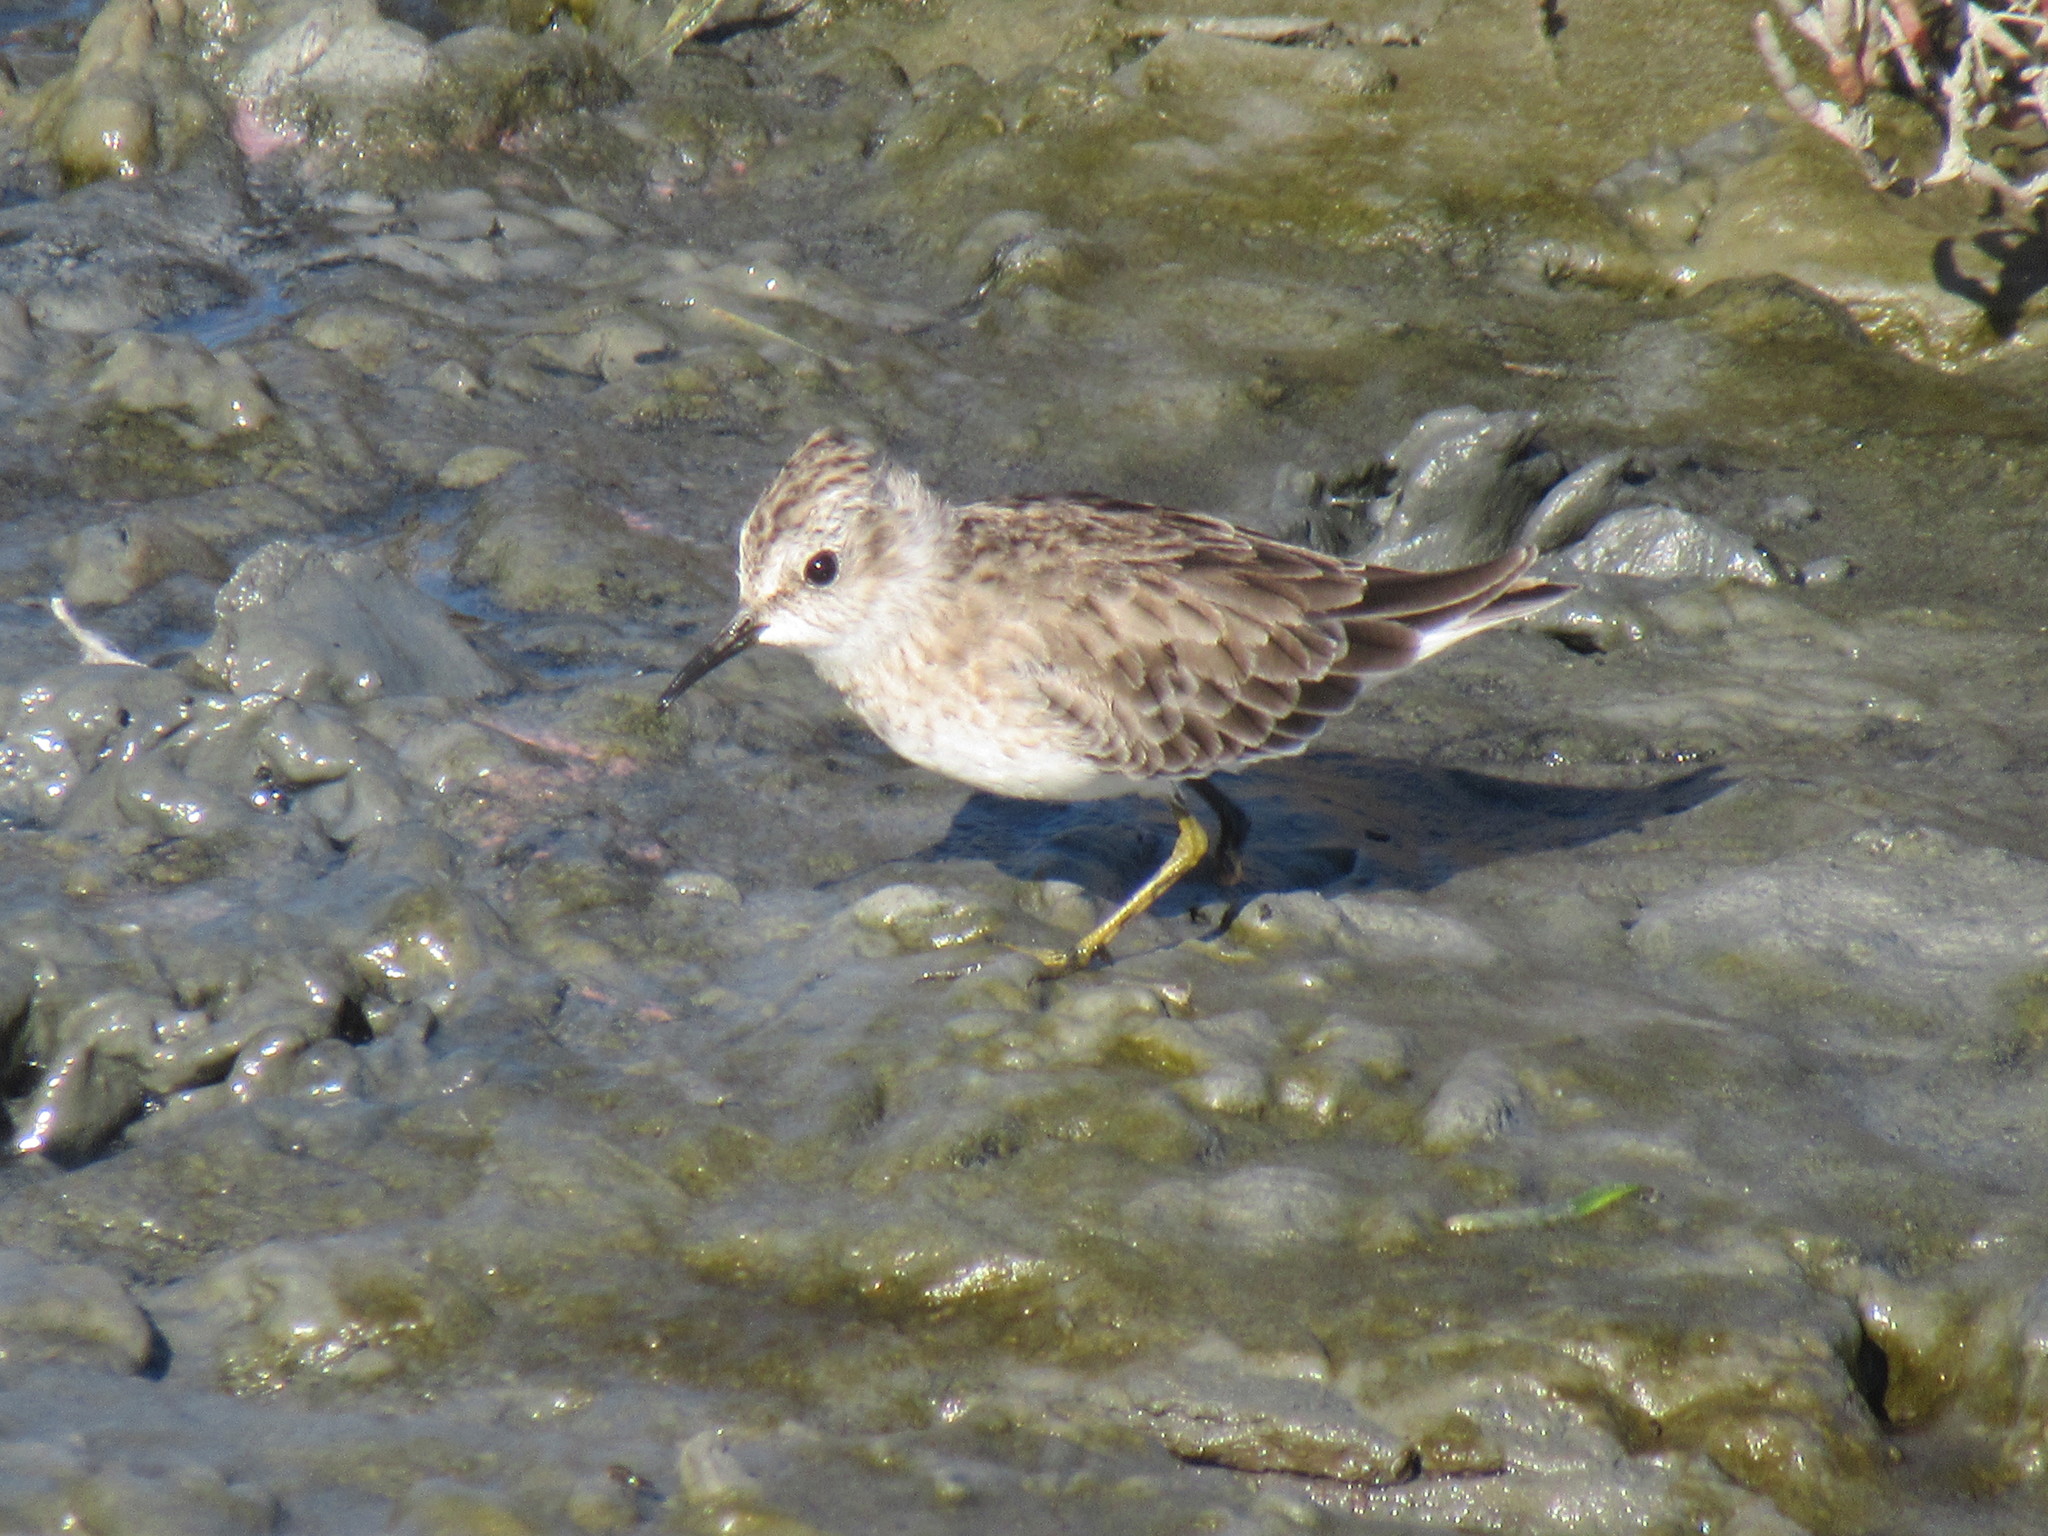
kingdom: Animalia
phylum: Chordata
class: Aves
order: Charadriiformes
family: Scolopacidae
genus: Calidris
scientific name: Calidris minutilla
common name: Least sandpiper
